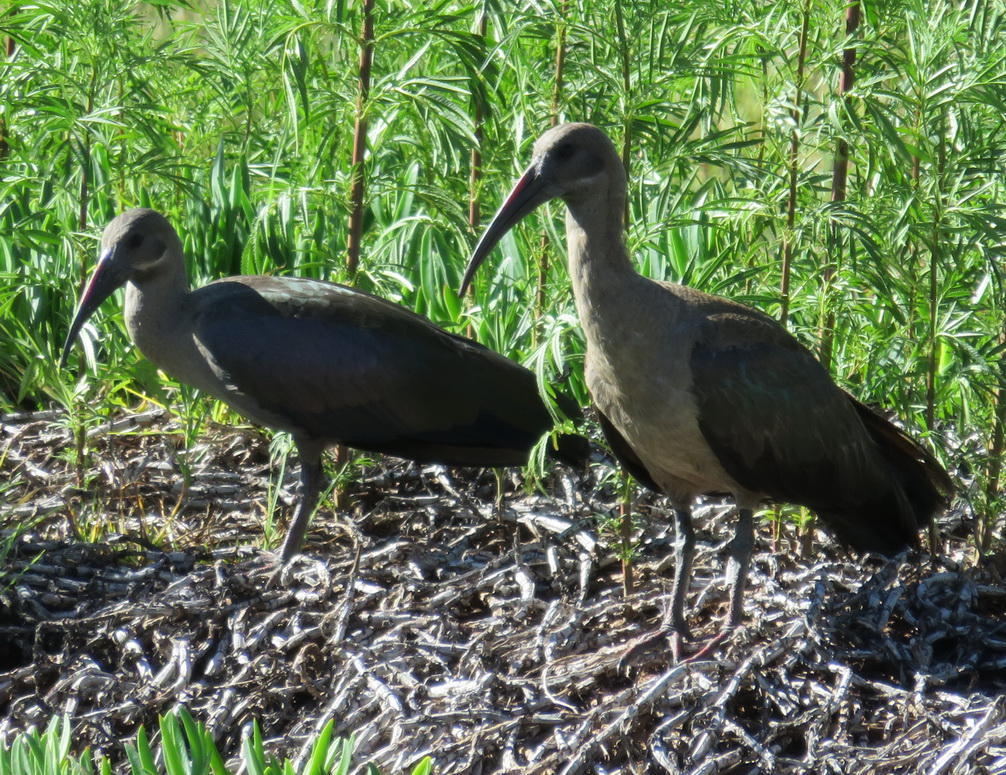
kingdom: Animalia
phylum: Chordata
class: Aves
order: Pelecaniformes
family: Threskiornithidae
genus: Bostrychia
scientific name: Bostrychia hagedash
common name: Hadada ibis
